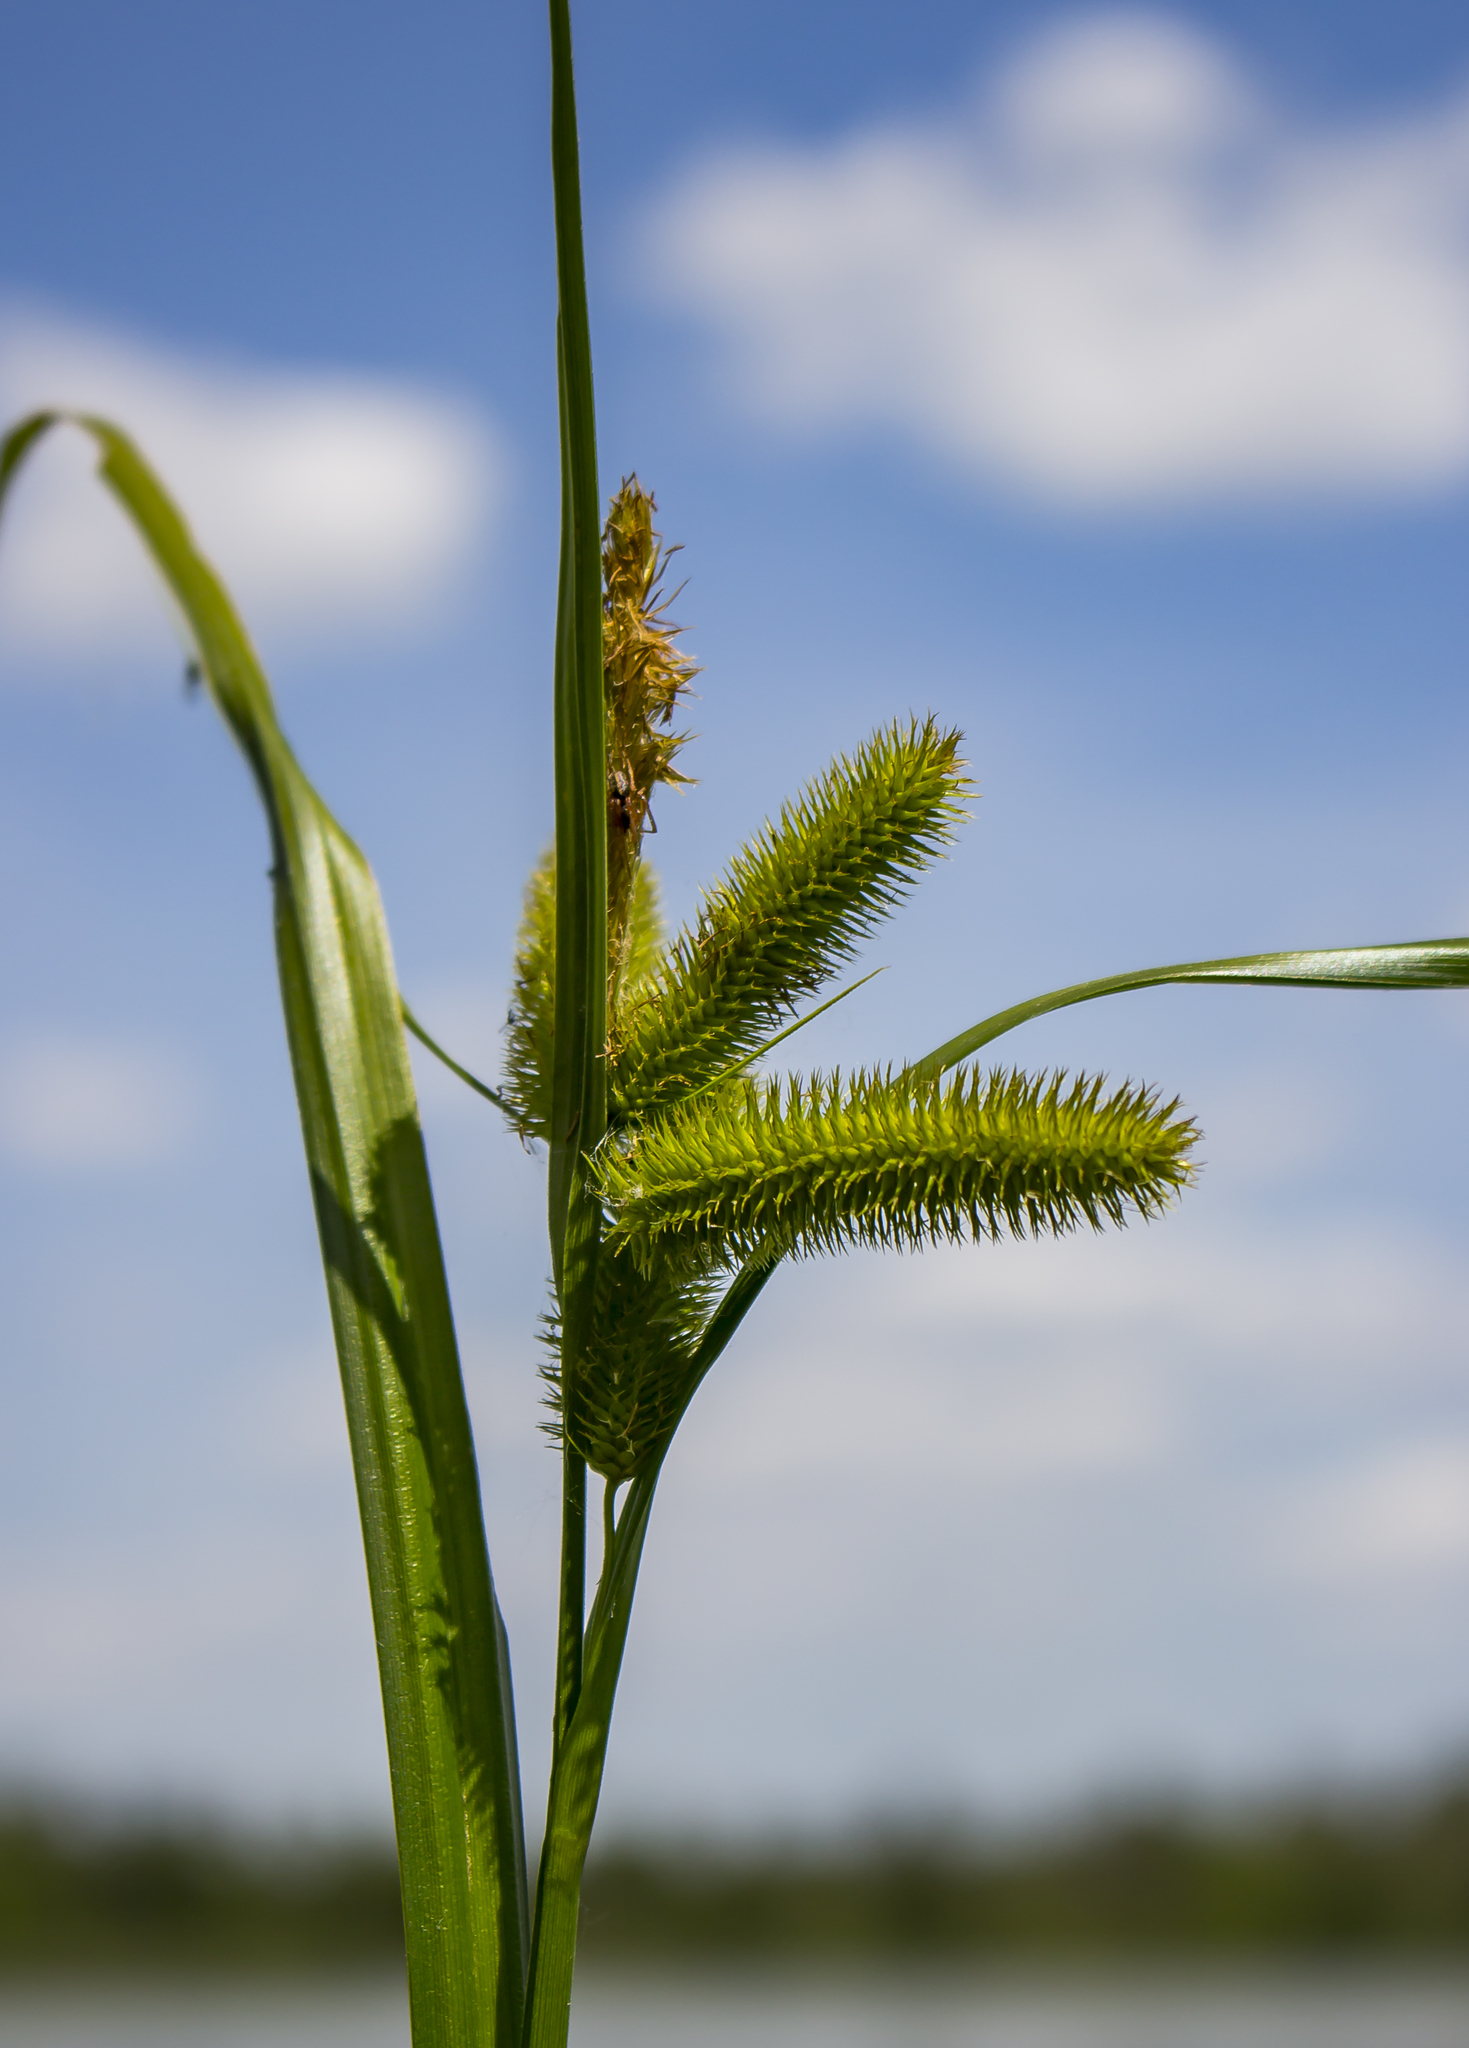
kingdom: Plantae
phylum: Tracheophyta
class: Liliopsida
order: Poales
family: Cyperaceae
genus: Carex
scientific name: Carex comosa
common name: Bristly sedge
